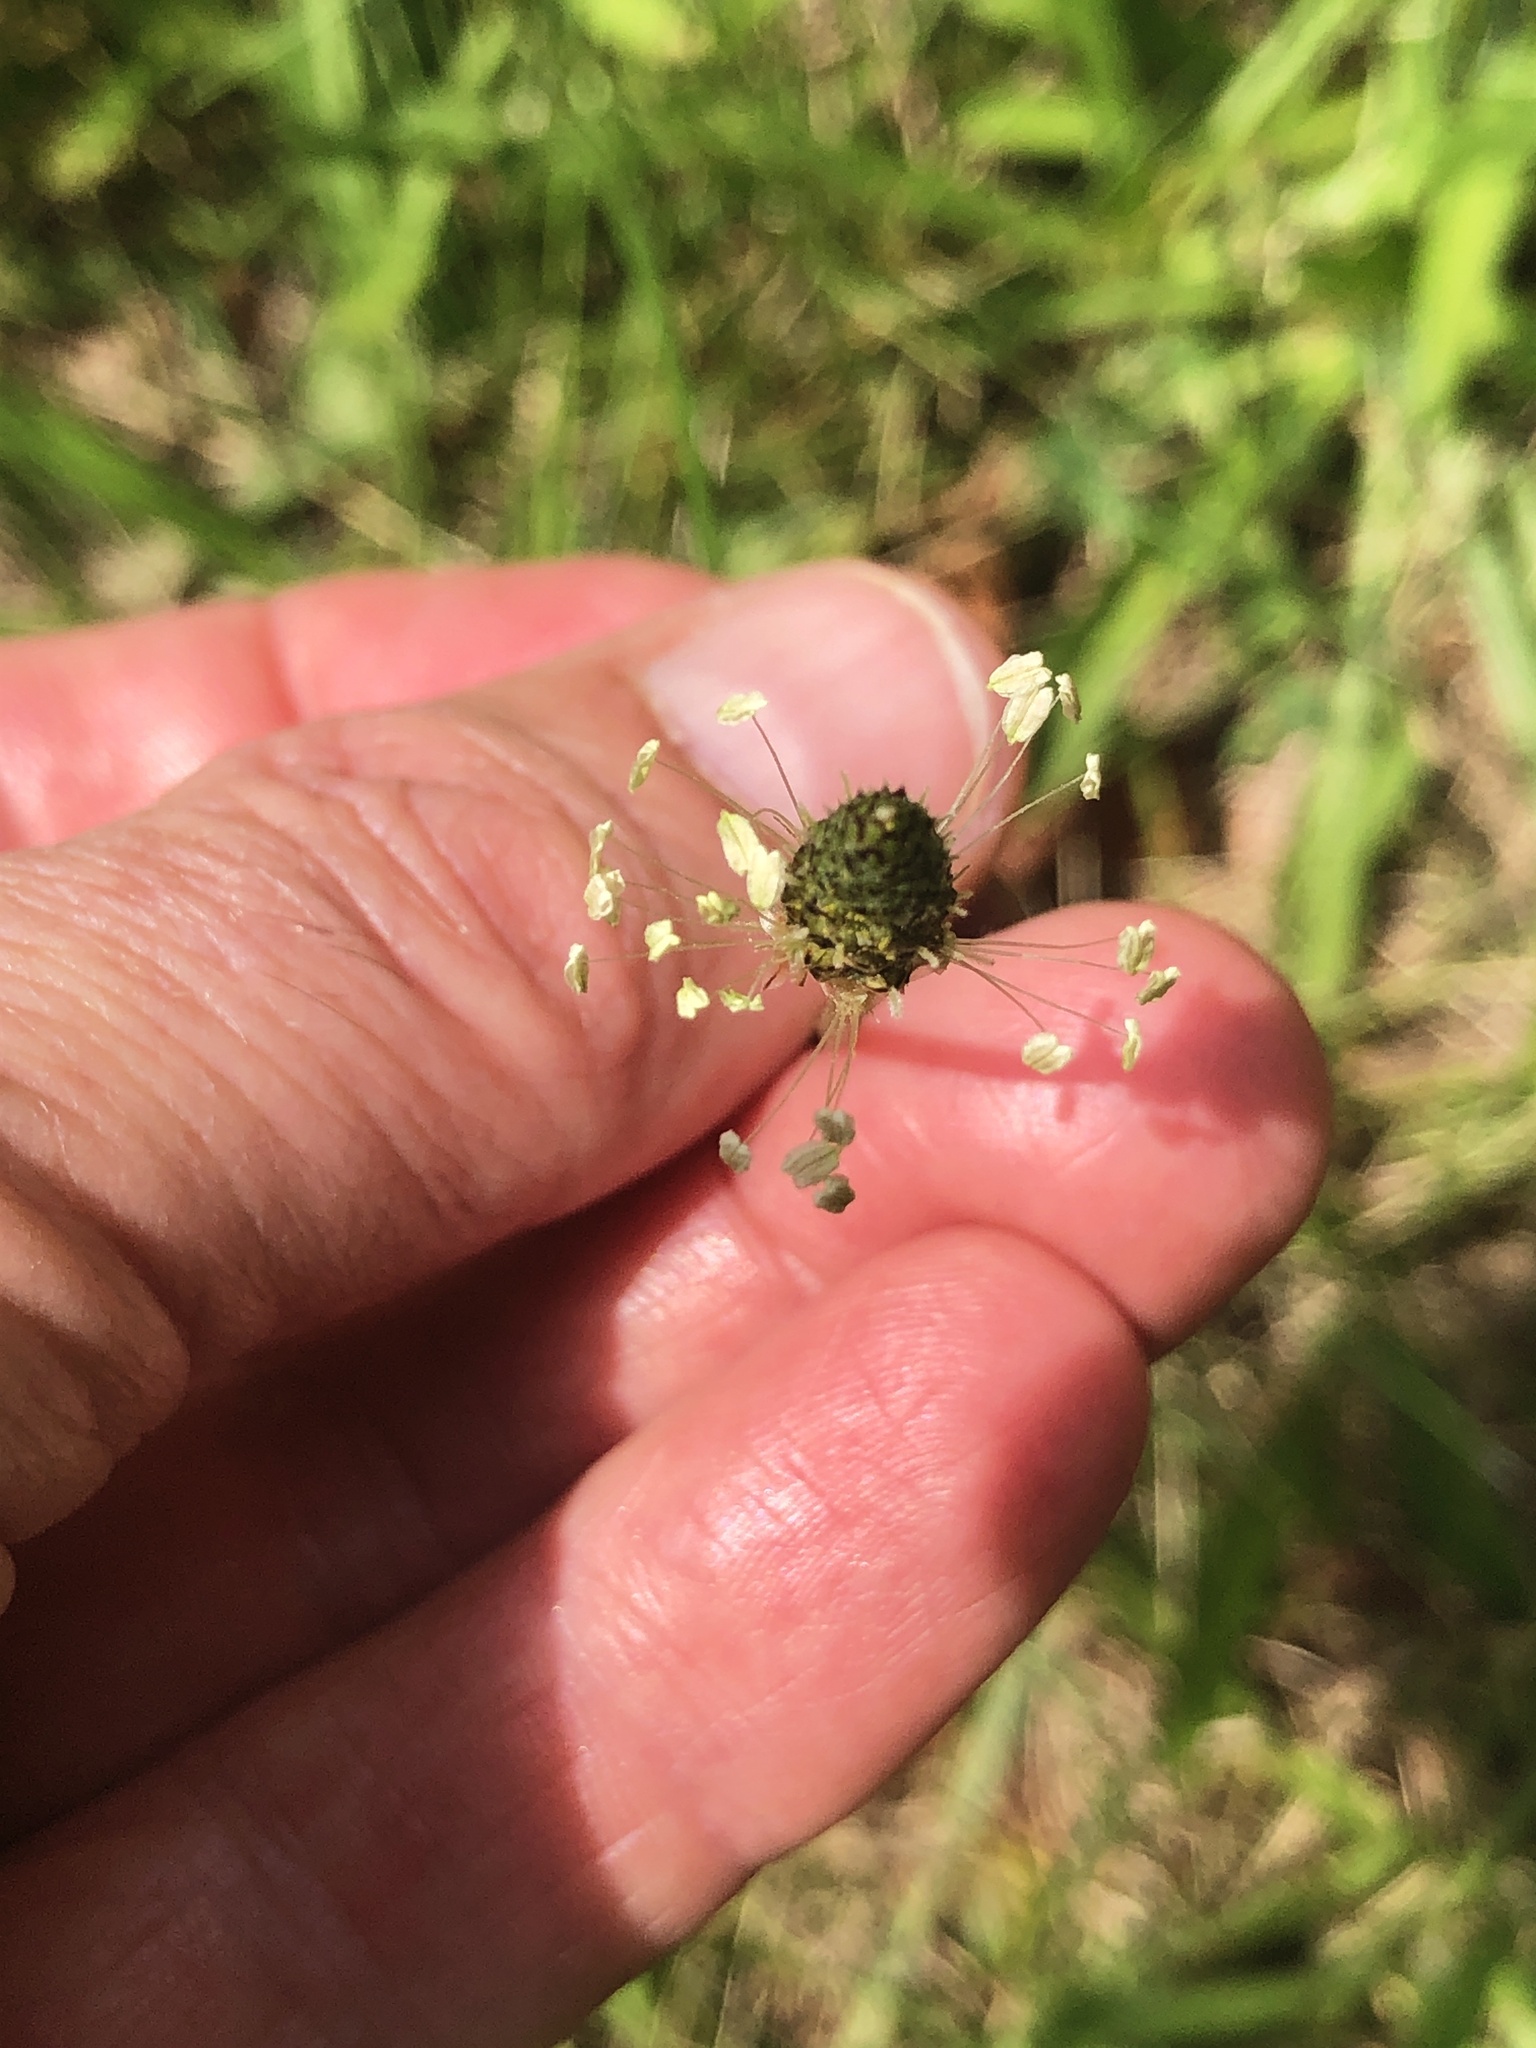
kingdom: Plantae
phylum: Tracheophyta
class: Magnoliopsida
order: Lamiales
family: Plantaginaceae
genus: Plantago
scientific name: Plantago lanceolata
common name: Ribwort plantain
